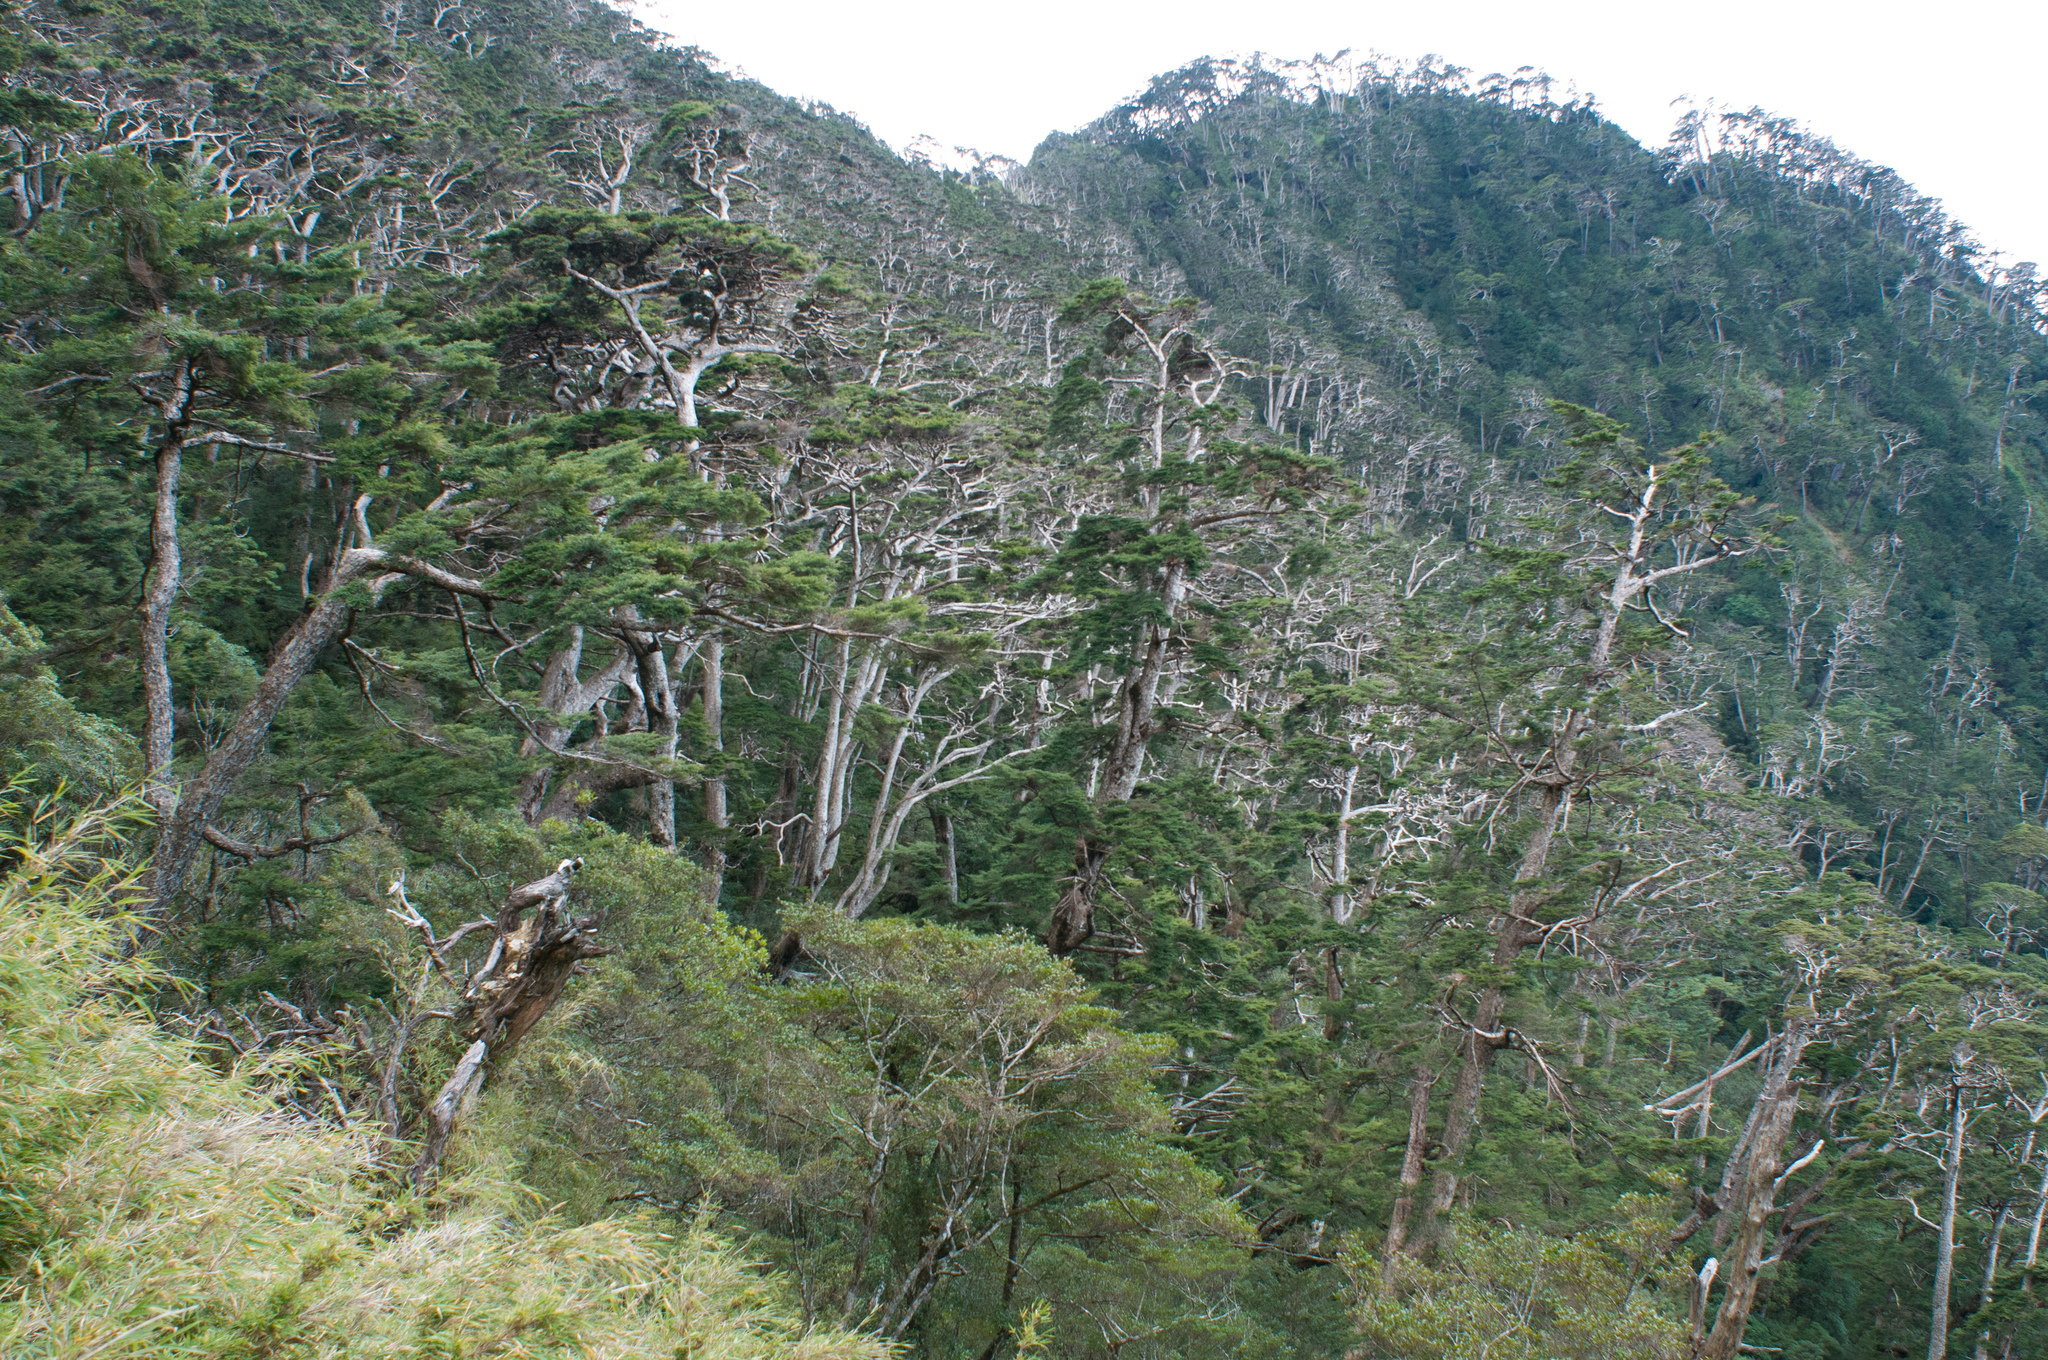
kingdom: Plantae
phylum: Tracheophyta
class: Pinopsida
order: Pinales
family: Pinaceae
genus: Tsuga
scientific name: Tsuga chinensis
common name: Chinese hemlock
